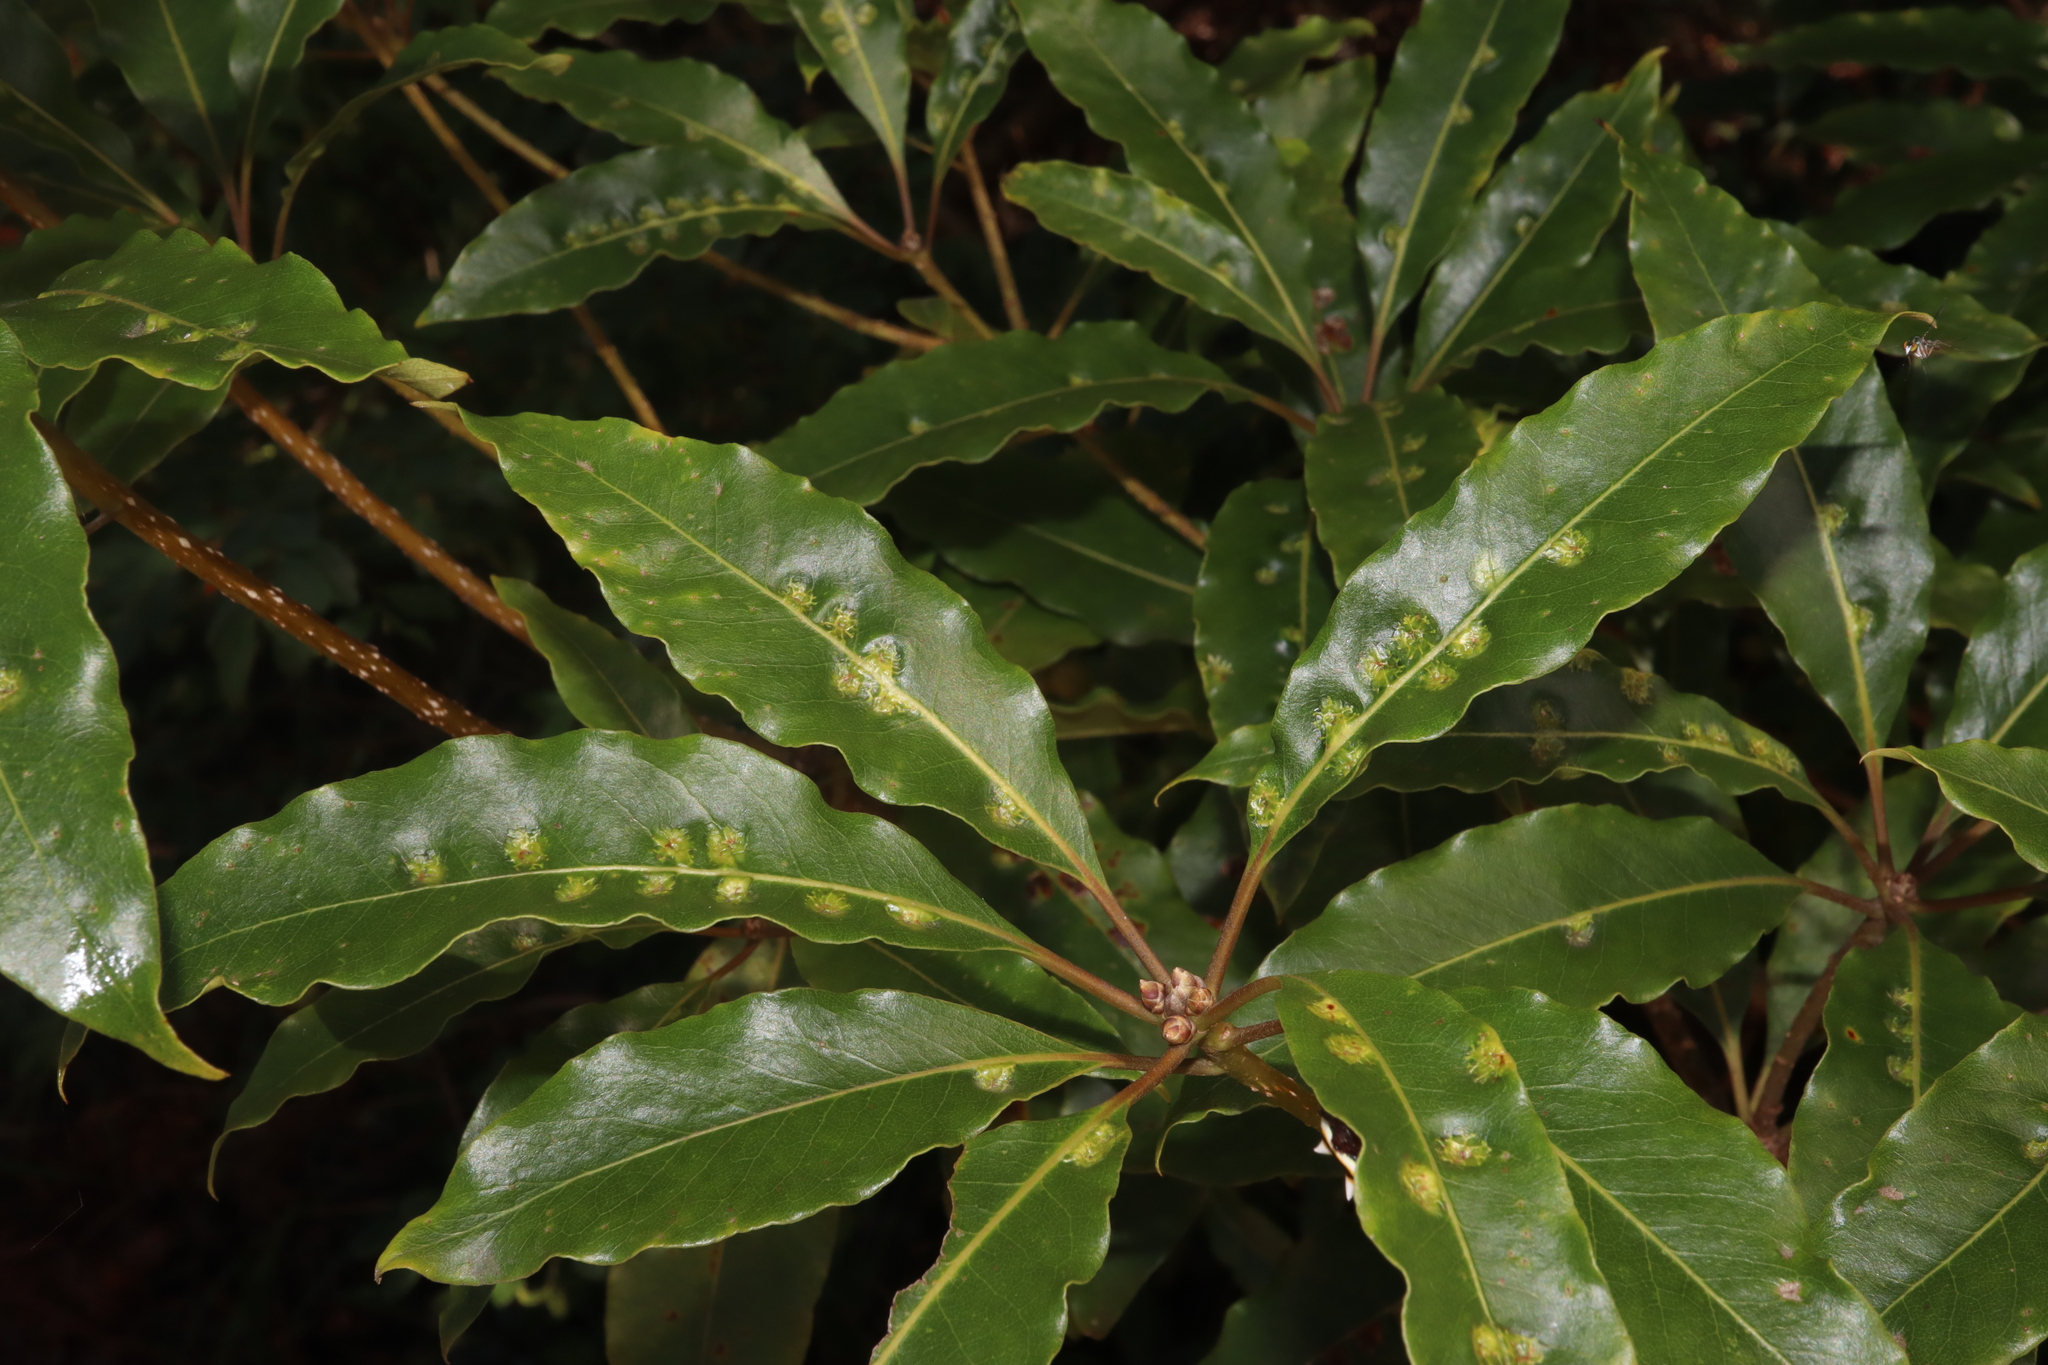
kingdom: Animalia
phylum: Arthropoda
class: Insecta
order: Diptera
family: Agromyzidae
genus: Phytoliriomyza
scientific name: Phytoliriomyza pittosporophylli
